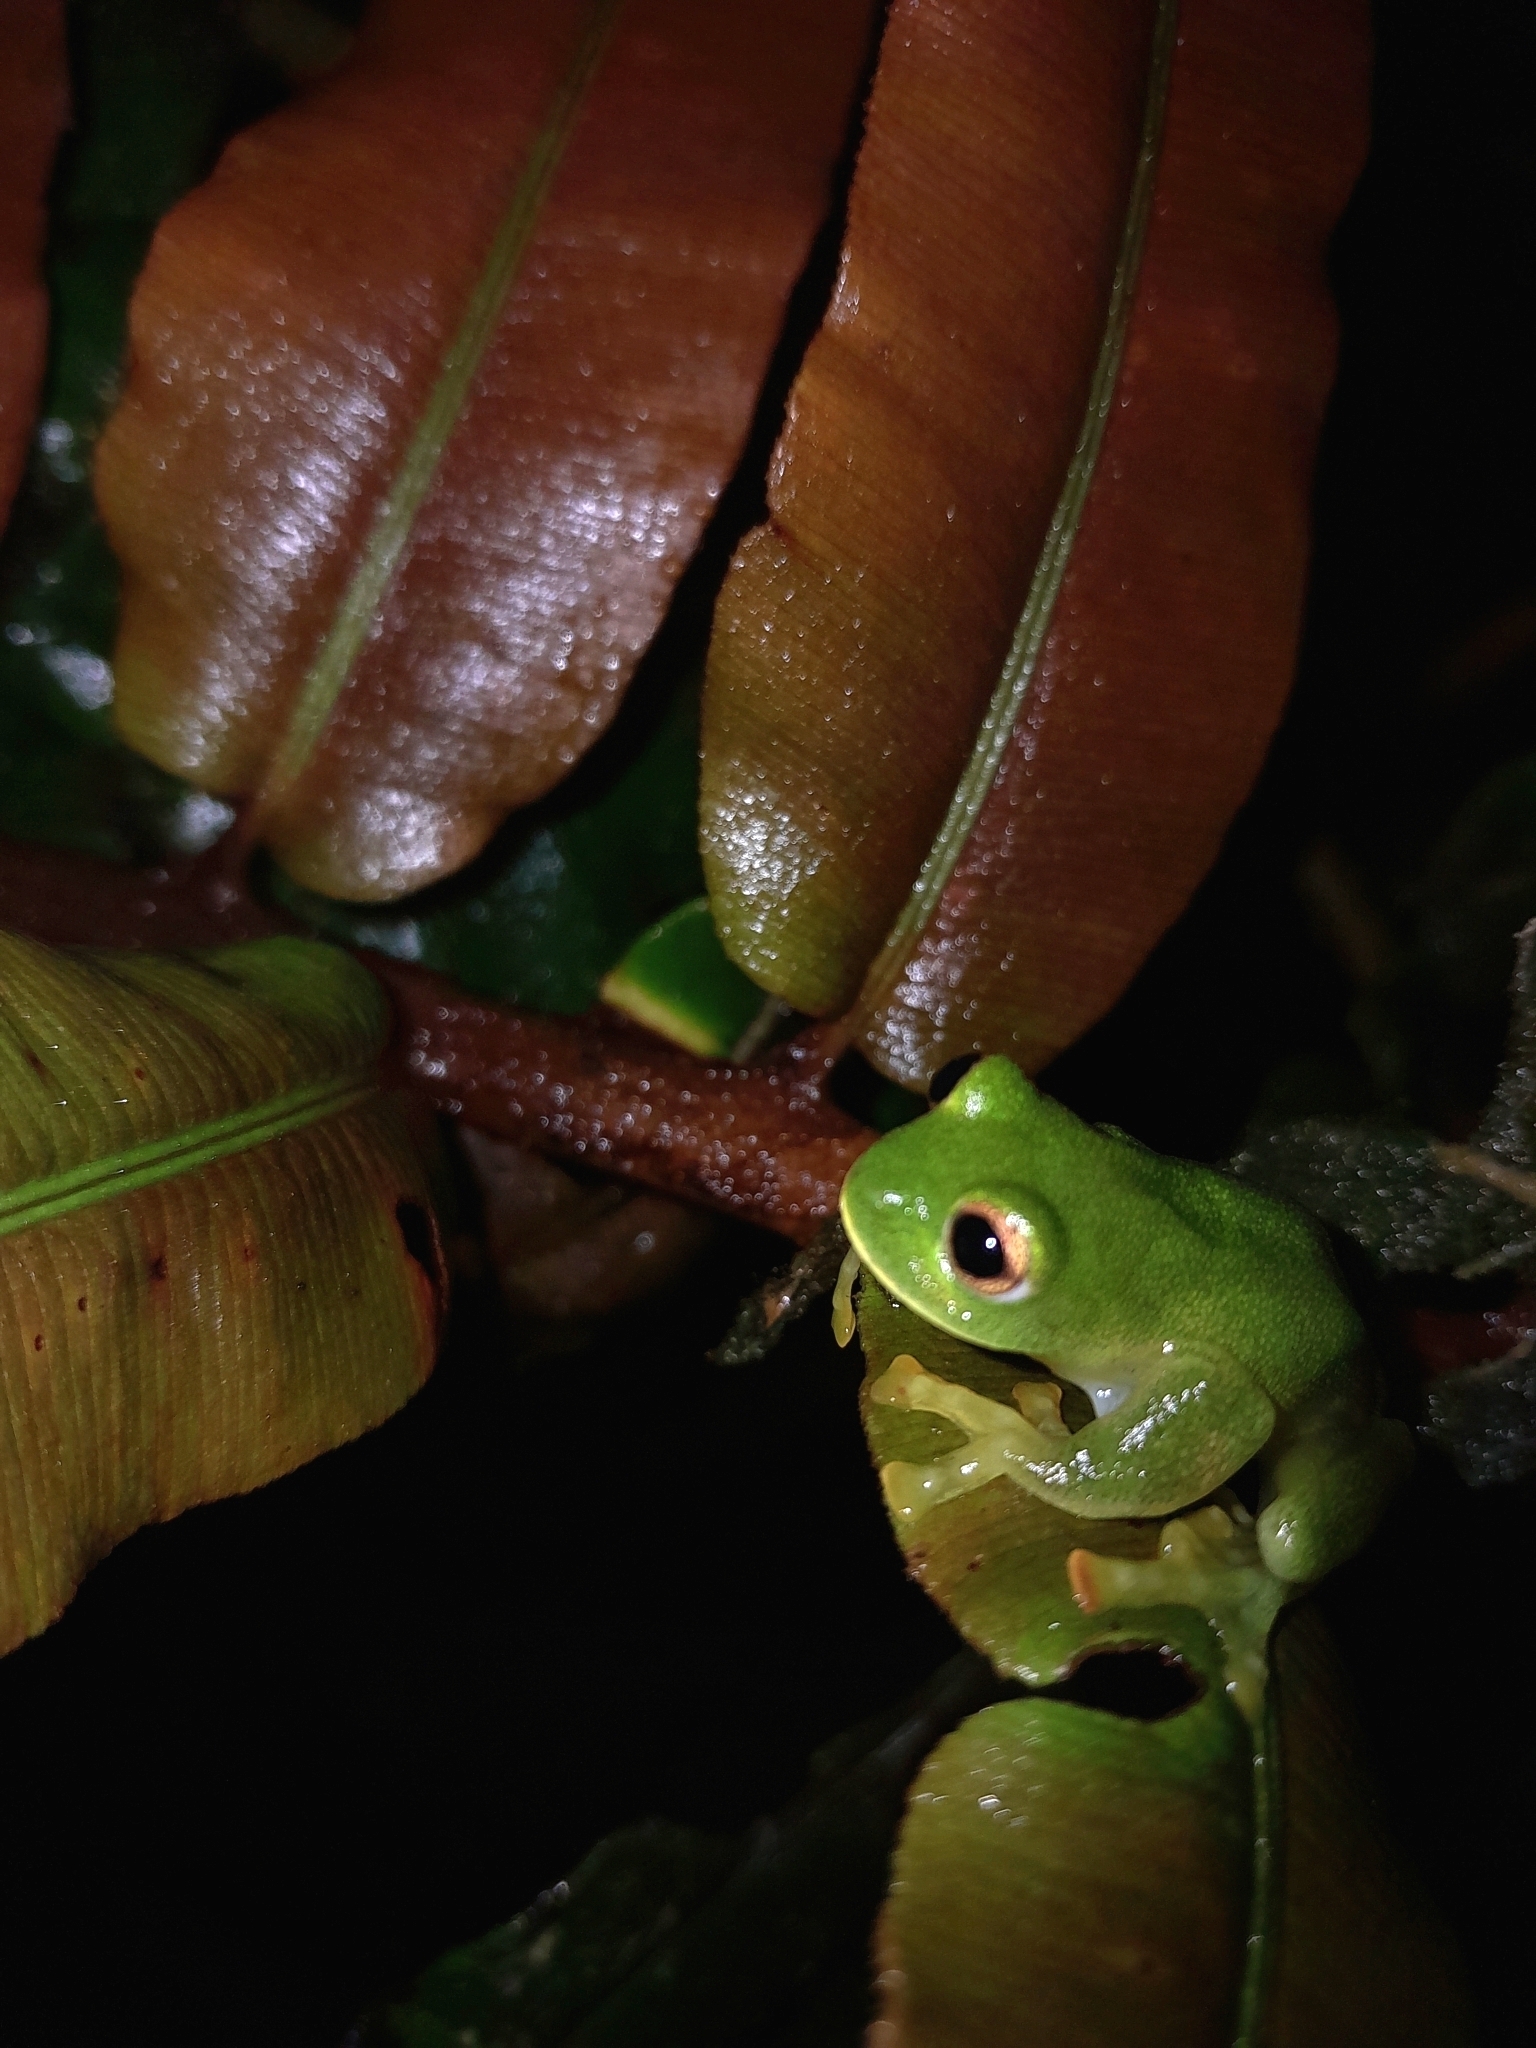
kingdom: Animalia
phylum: Chordata
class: Amphibia
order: Anura
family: Centrolenidae
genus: Ikakogi
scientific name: Ikakogi tayrona
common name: Magdalena giant glass frog
